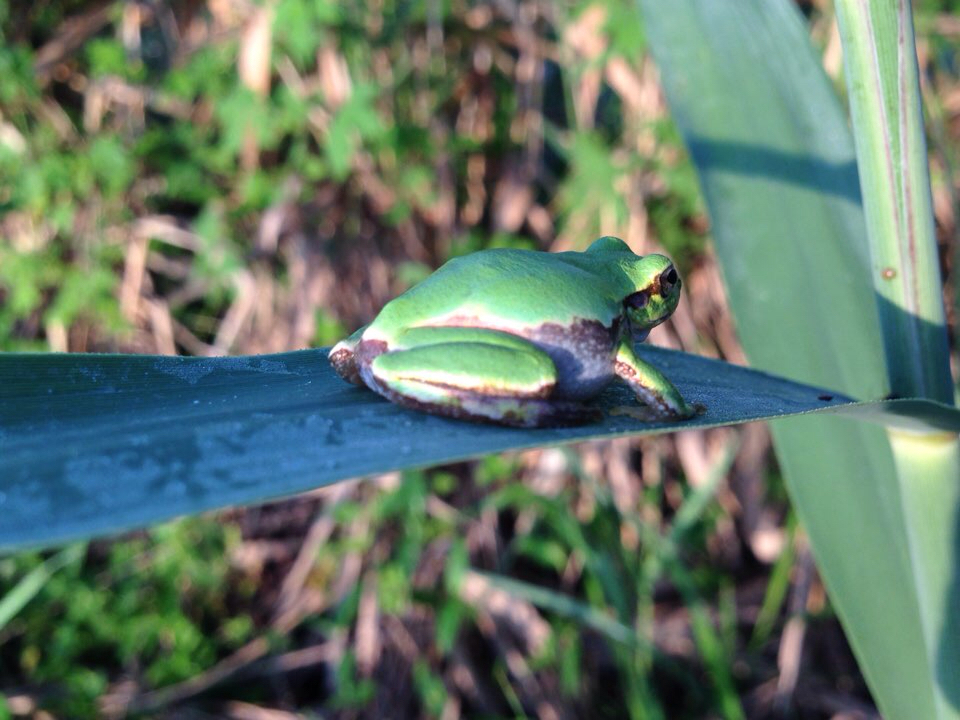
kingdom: Animalia
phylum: Chordata
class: Amphibia
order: Anura
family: Hylidae
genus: Dryophytes
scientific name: Dryophytes japonicus
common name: Japanese treefrog
